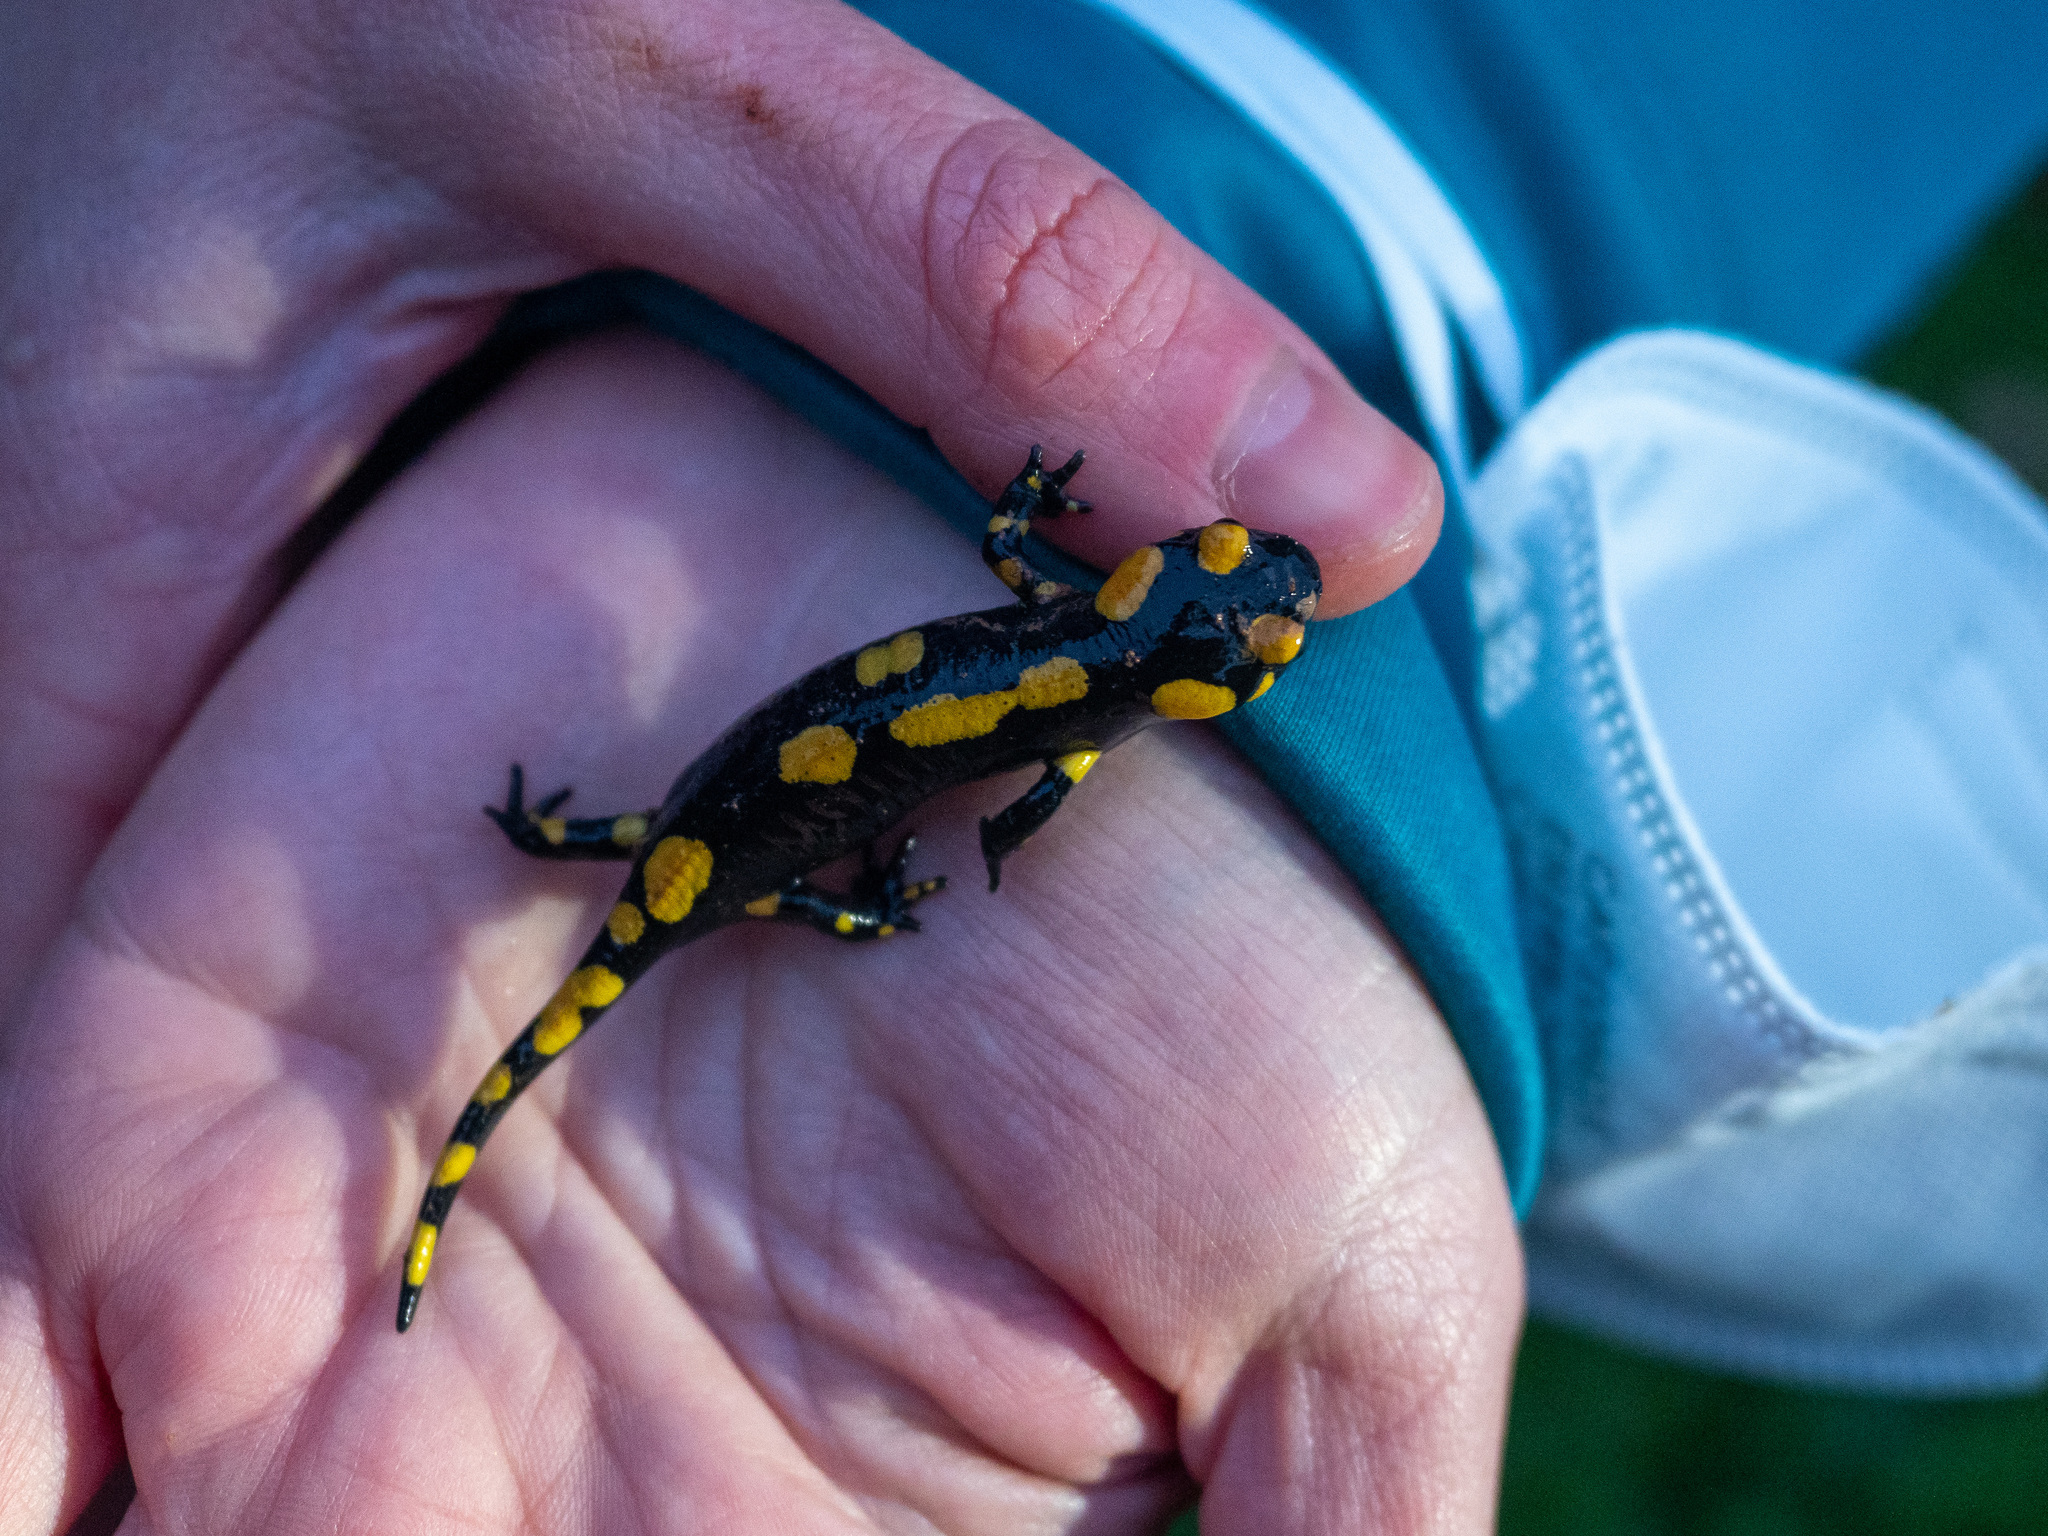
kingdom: Animalia
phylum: Chordata
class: Amphibia
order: Caudata
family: Salamandridae
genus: Salamandra
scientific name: Salamandra longirostris
